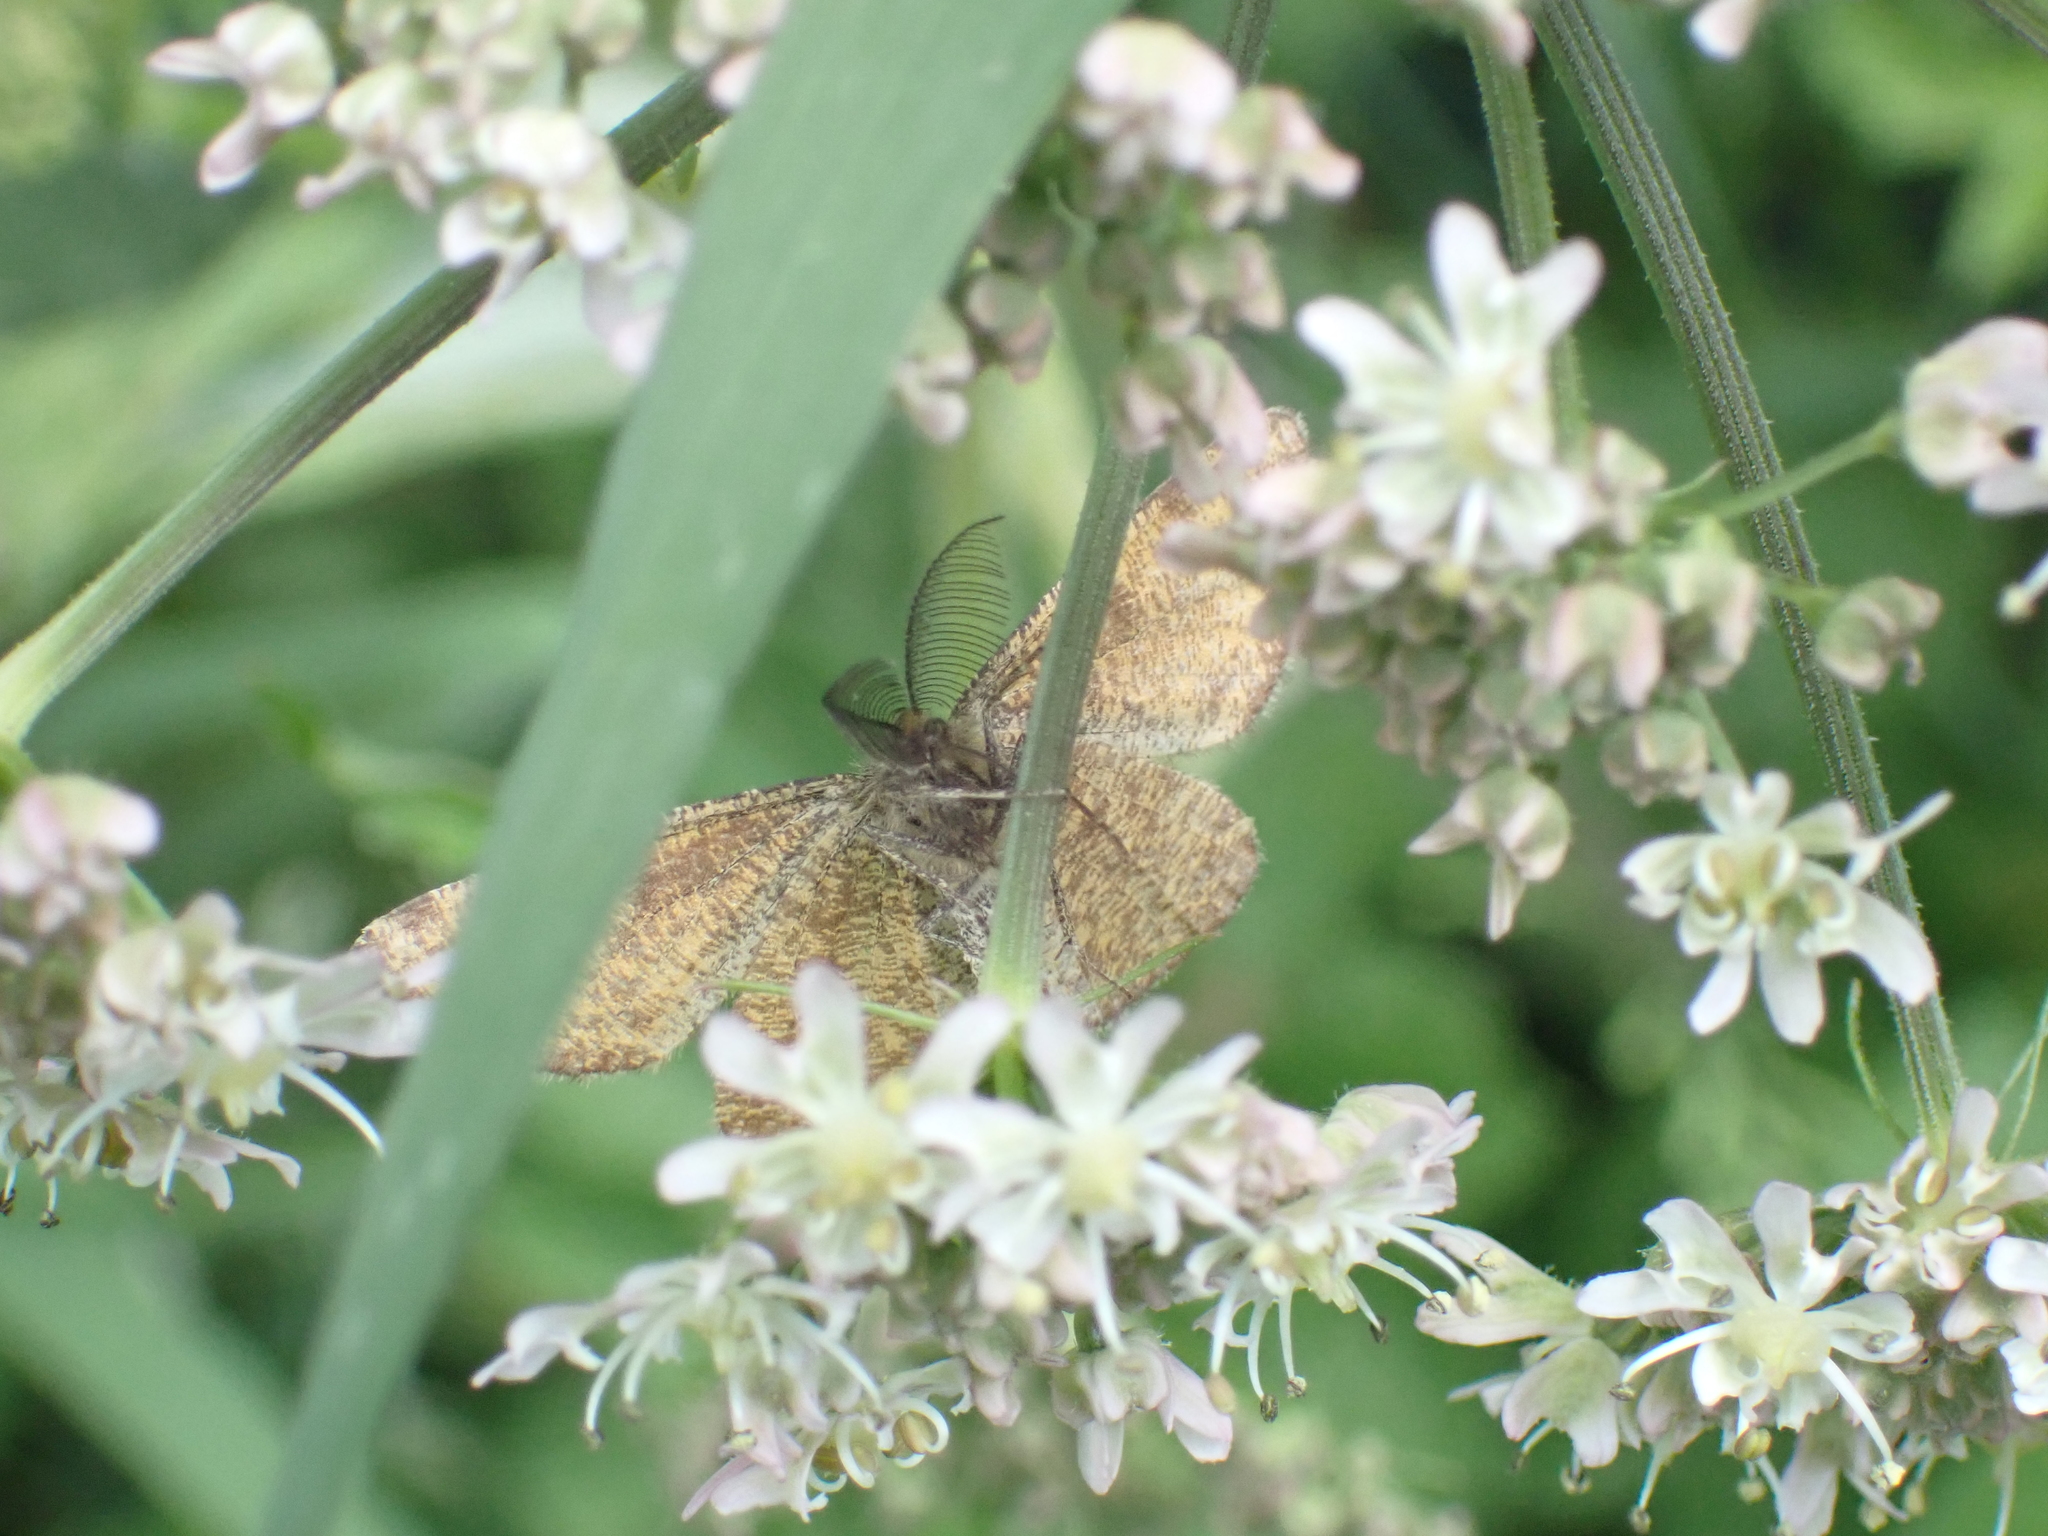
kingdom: Animalia
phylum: Arthropoda
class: Insecta
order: Lepidoptera
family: Geometridae
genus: Ematurga
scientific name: Ematurga atomaria
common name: Common heath
